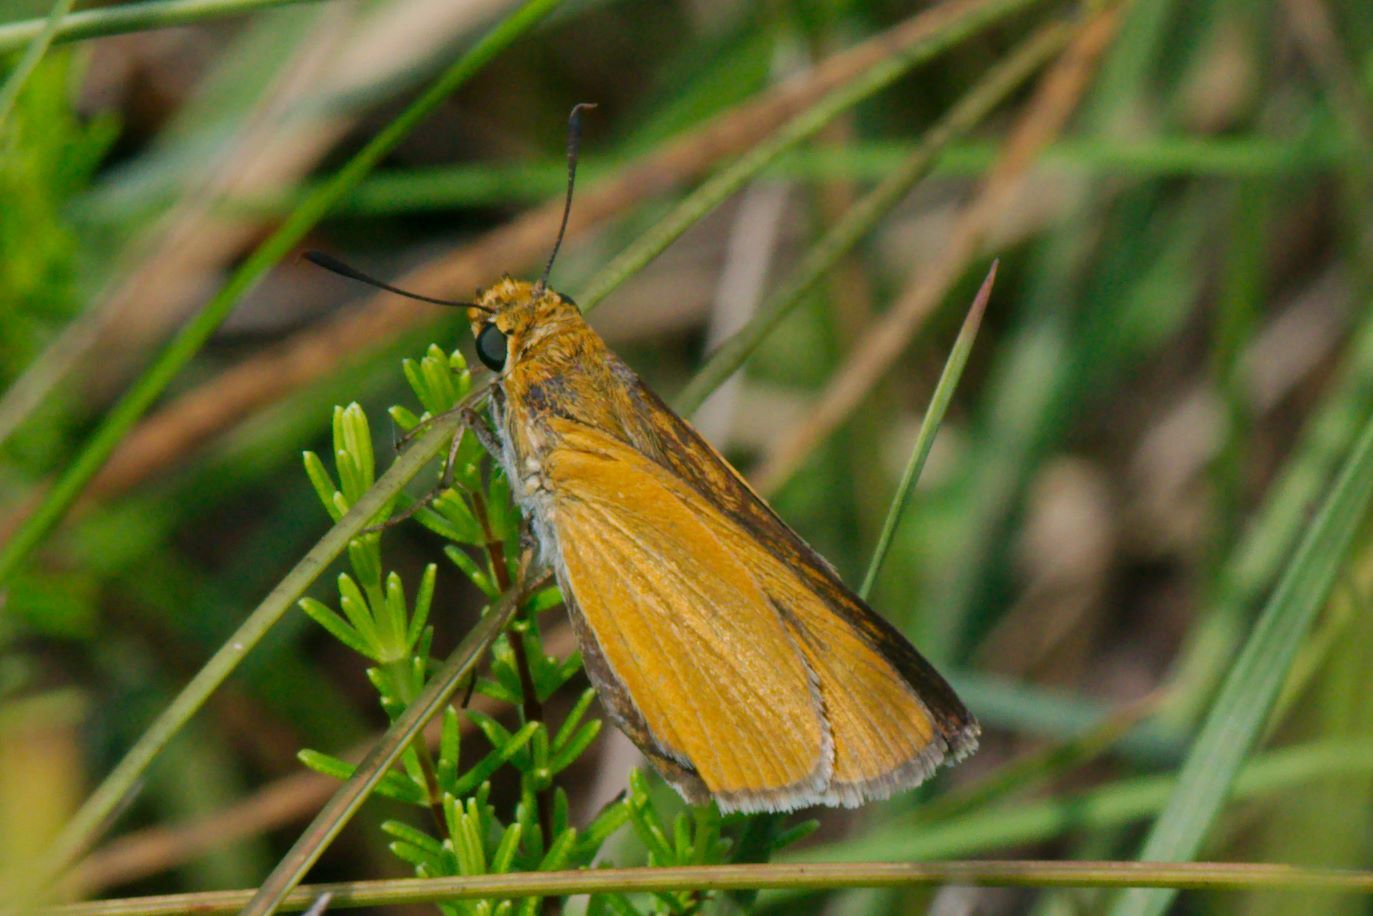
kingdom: Animalia
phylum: Arthropoda
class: Insecta
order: Lepidoptera
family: Hesperiidae
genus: Euphyes
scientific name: Euphyes arpa
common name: Palmetto skipper
